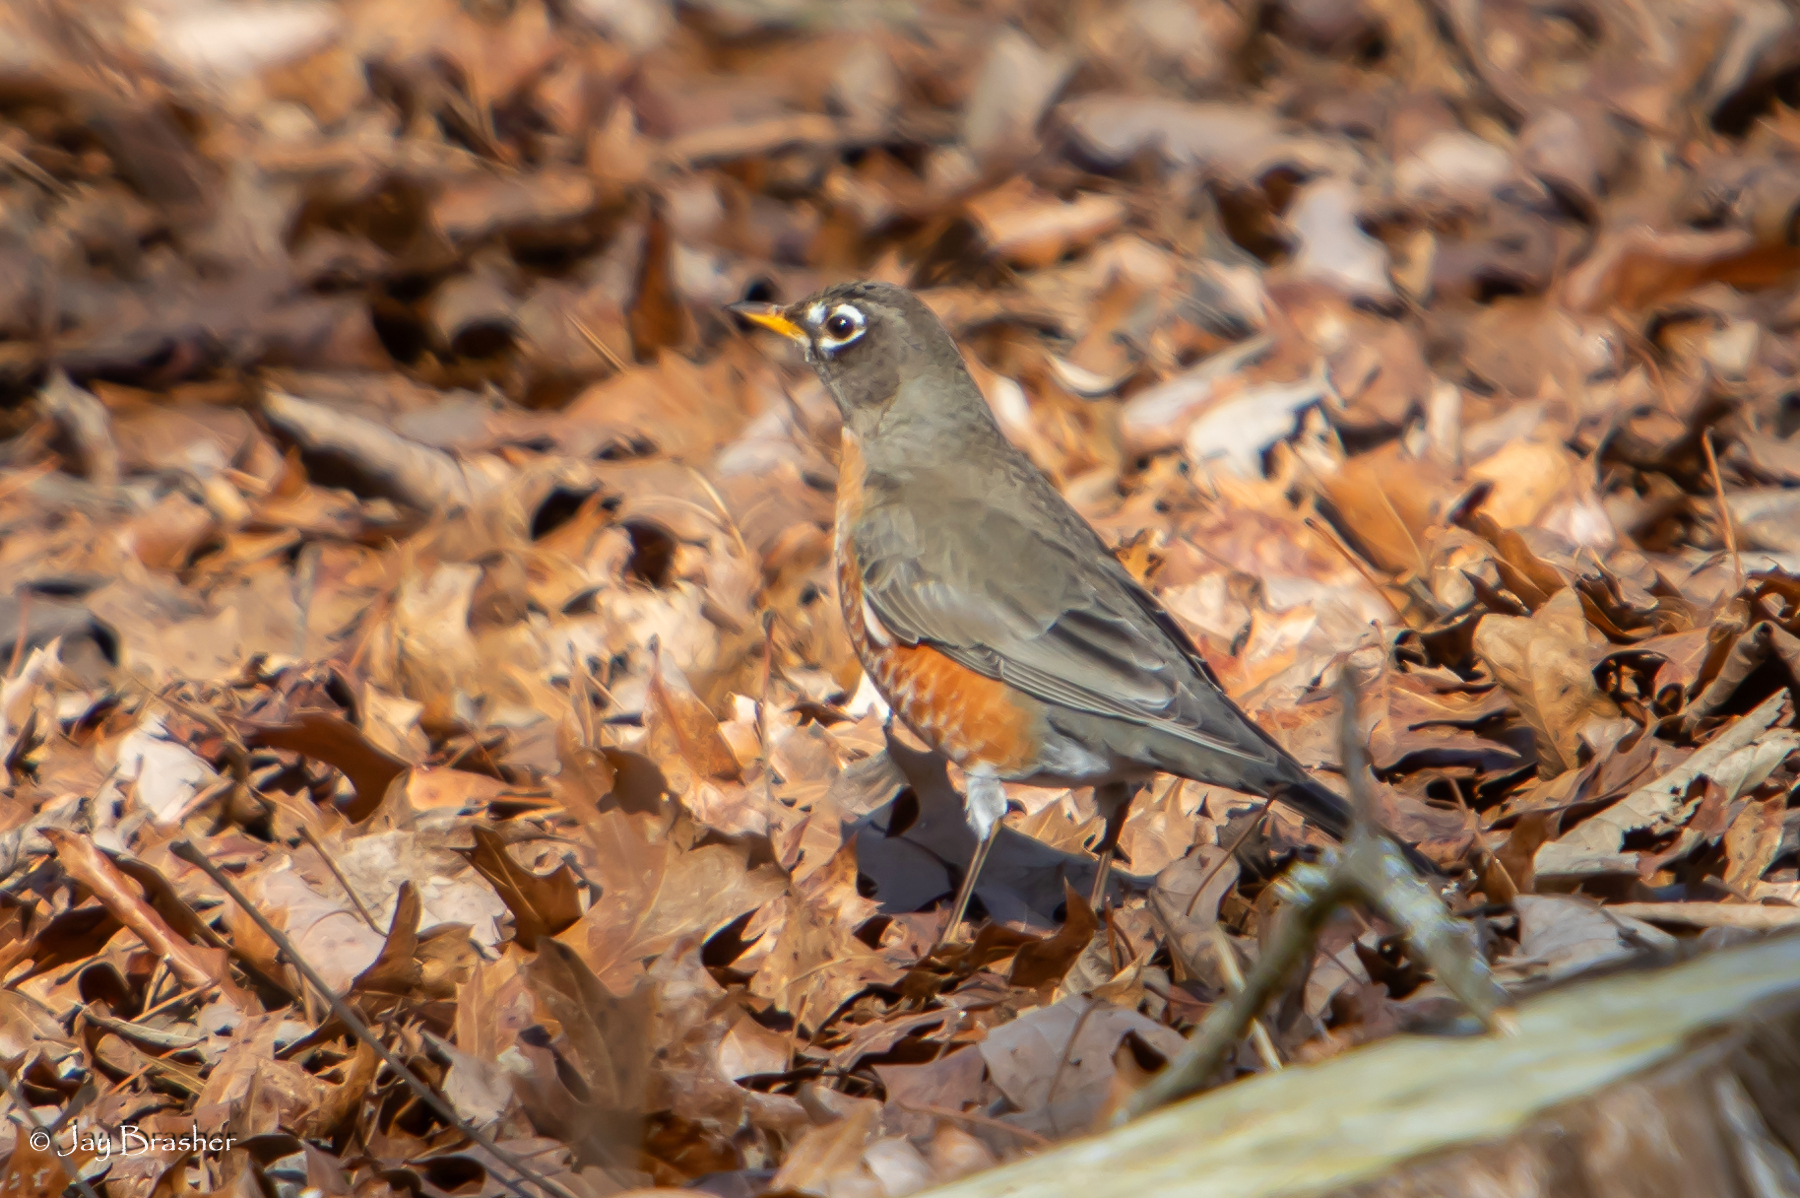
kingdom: Animalia
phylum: Chordata
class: Aves
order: Passeriformes
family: Turdidae
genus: Turdus
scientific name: Turdus migratorius
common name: American robin
